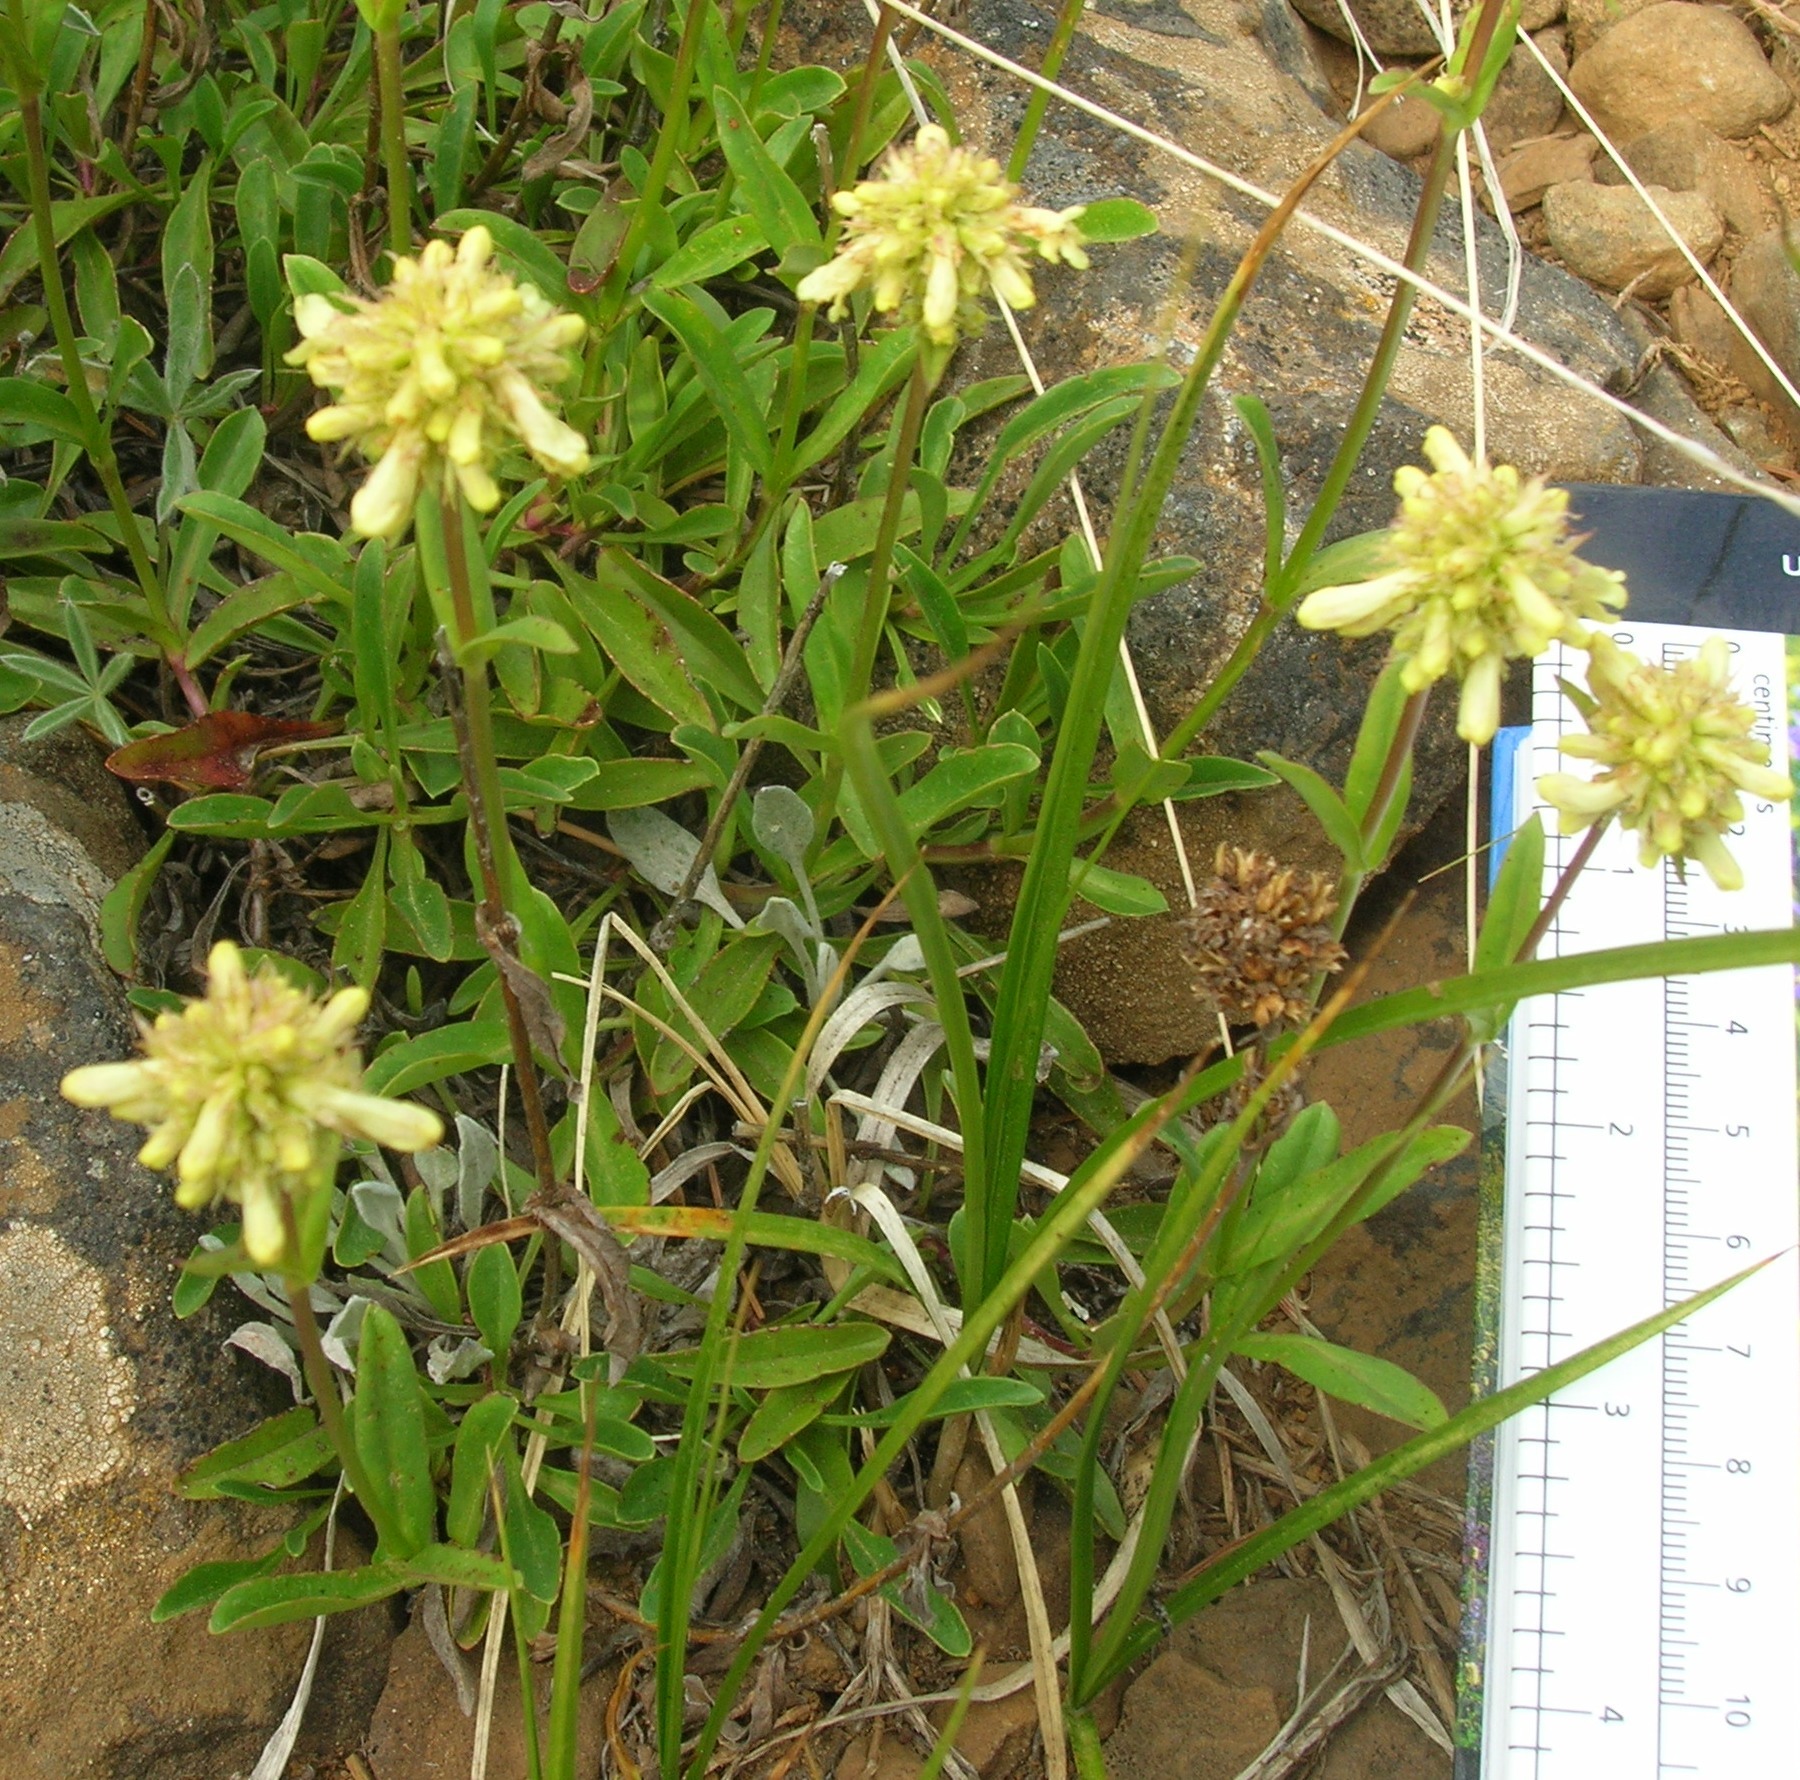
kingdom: Plantae
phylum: Tracheophyta
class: Magnoliopsida
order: Lamiales
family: Plantaginaceae
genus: Penstemon
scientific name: Penstemon confertus
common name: Lesser yellow beardtongue
